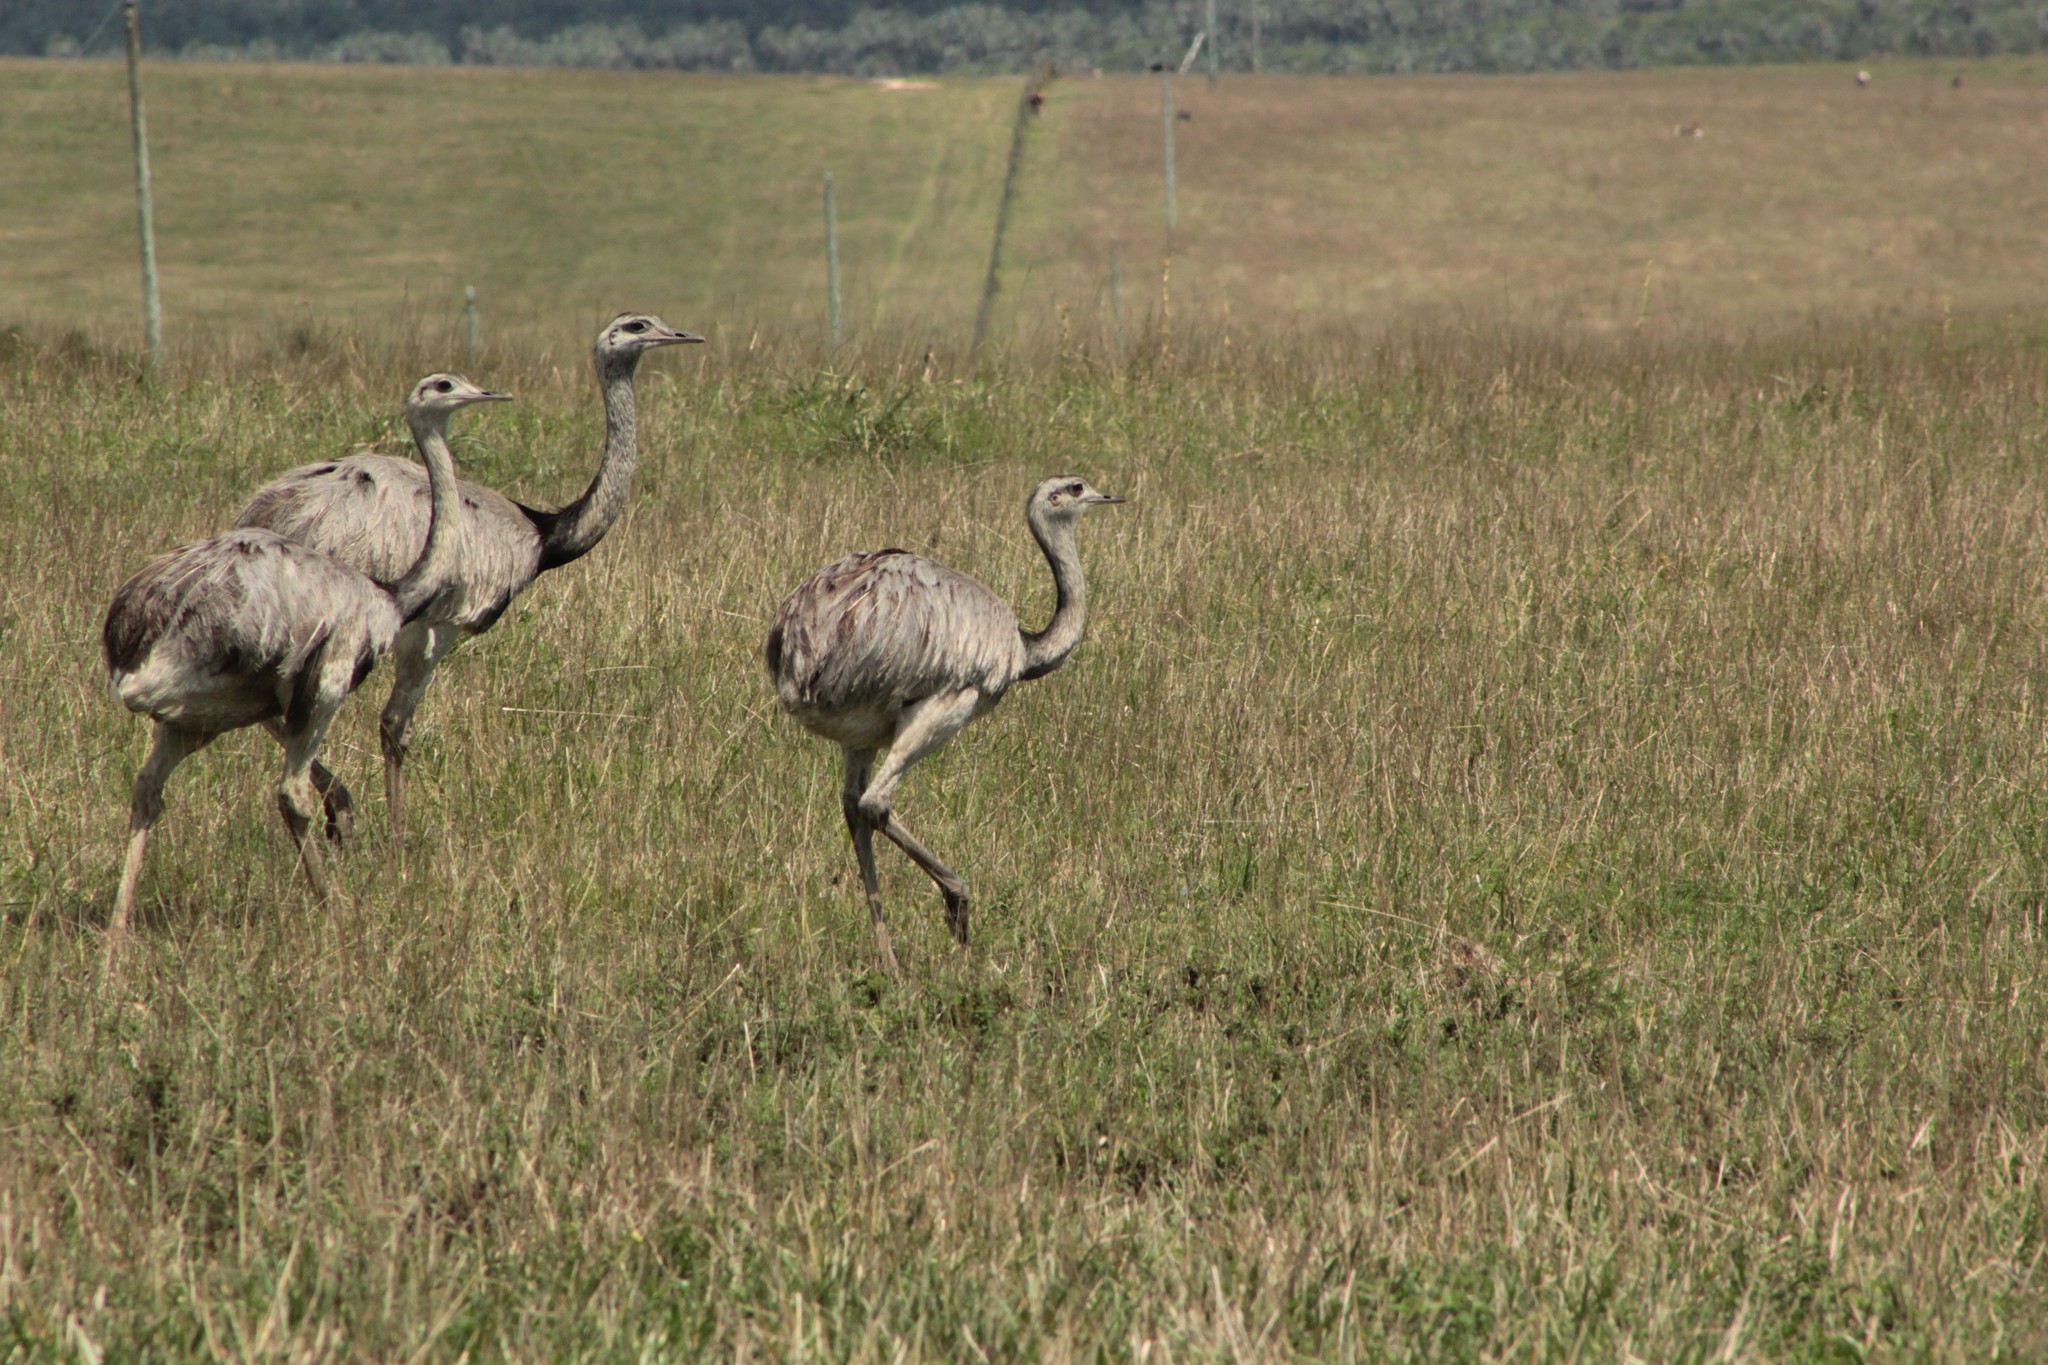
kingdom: Animalia
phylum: Chordata
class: Aves
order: Rheiformes
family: Rheidae
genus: Rhea
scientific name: Rhea americana
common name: Greater rhea
